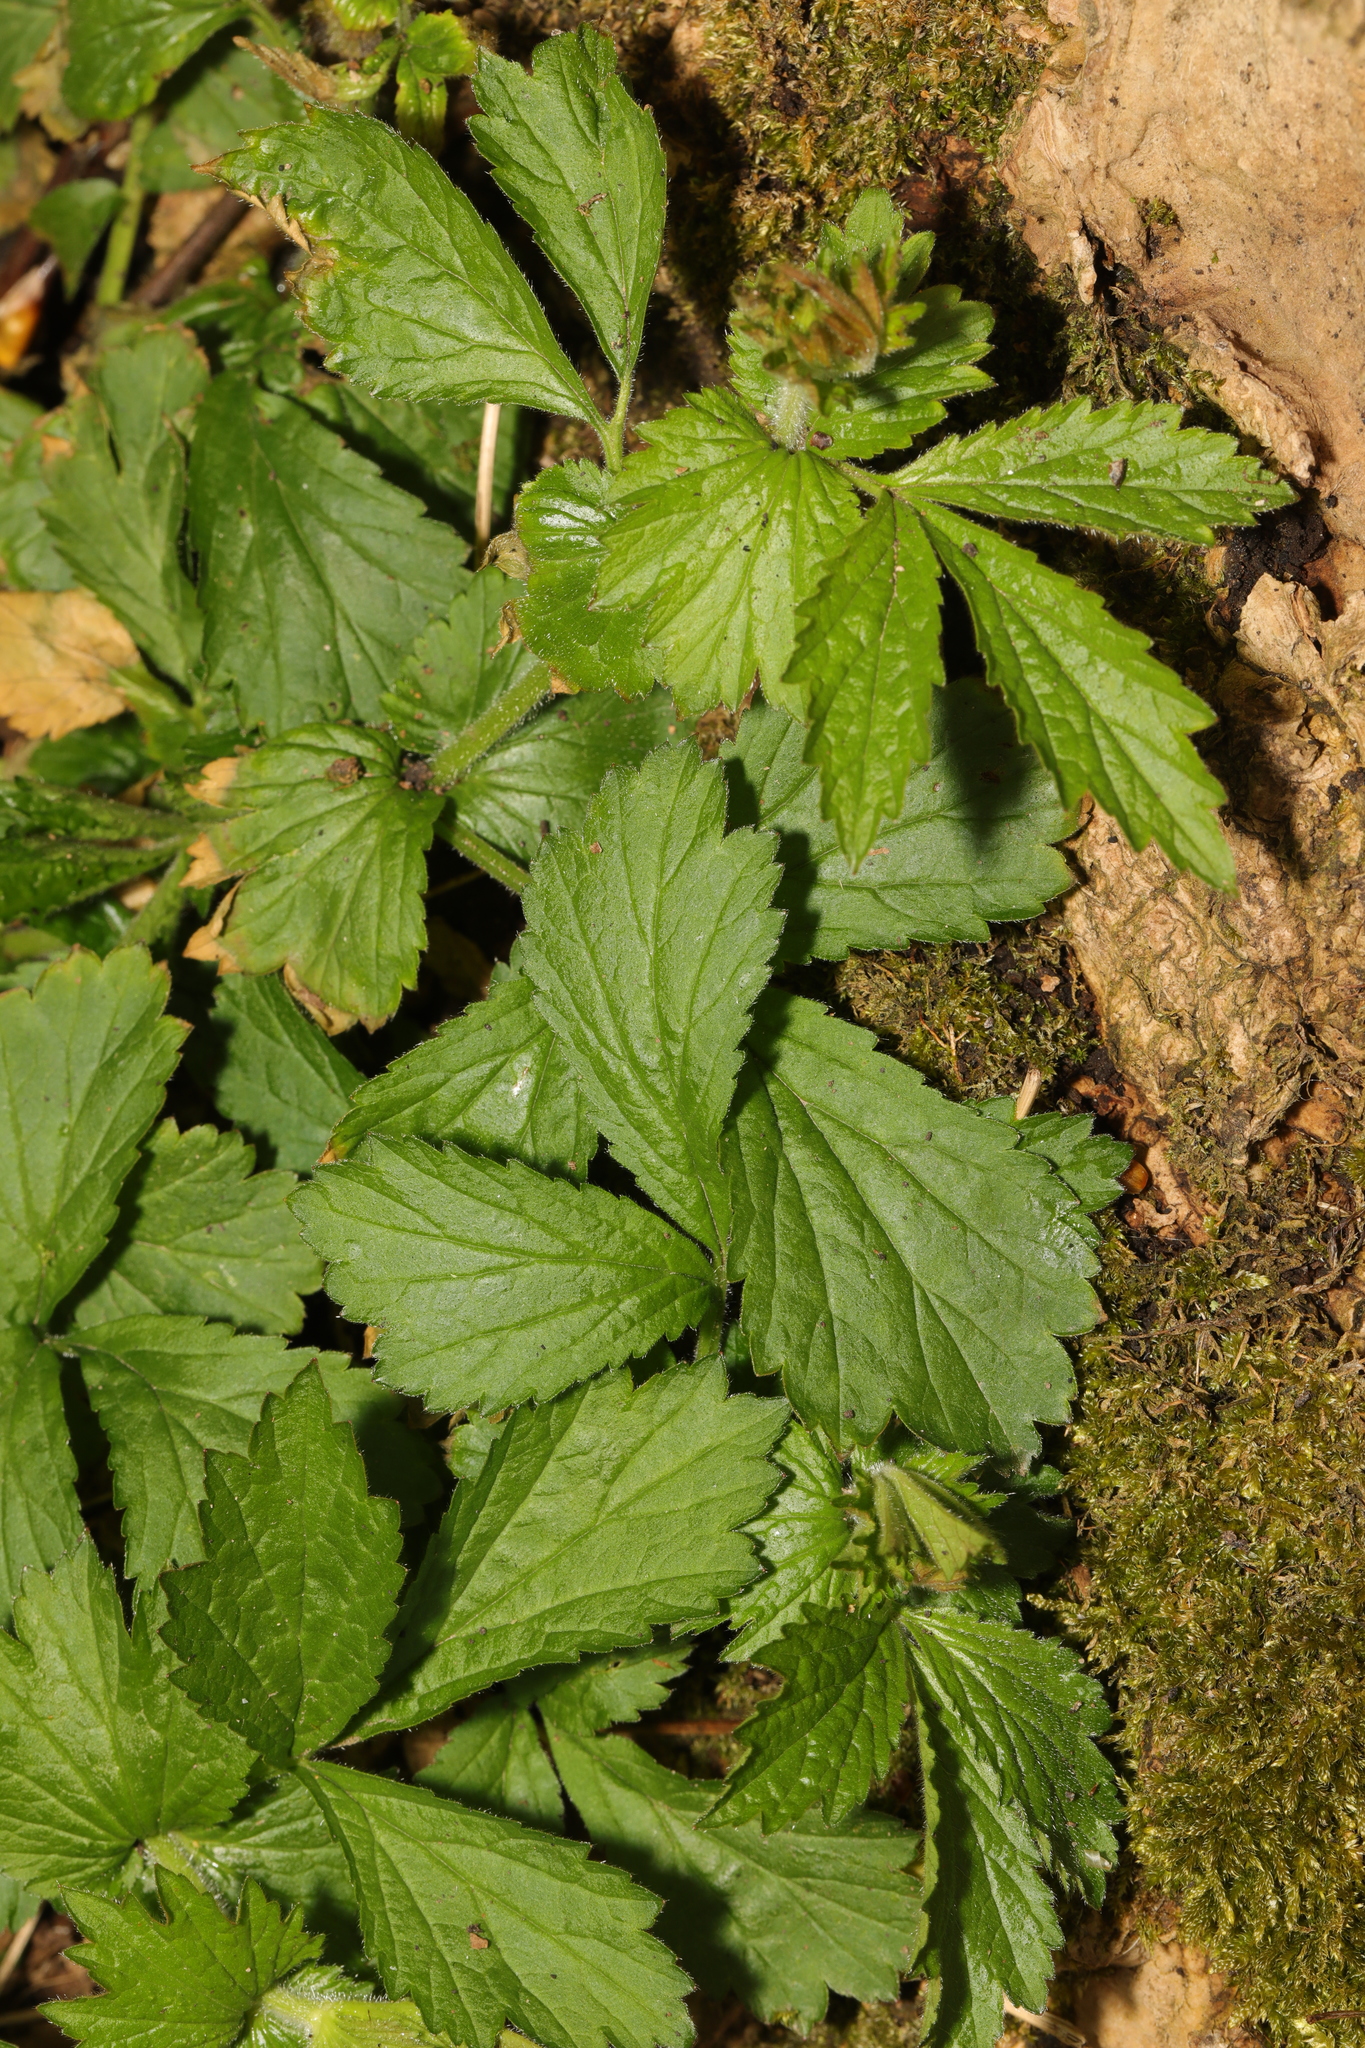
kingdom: Plantae
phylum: Tracheophyta
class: Magnoliopsida
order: Rosales
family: Rosaceae
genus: Geum
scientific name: Geum urbanum
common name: Wood avens
